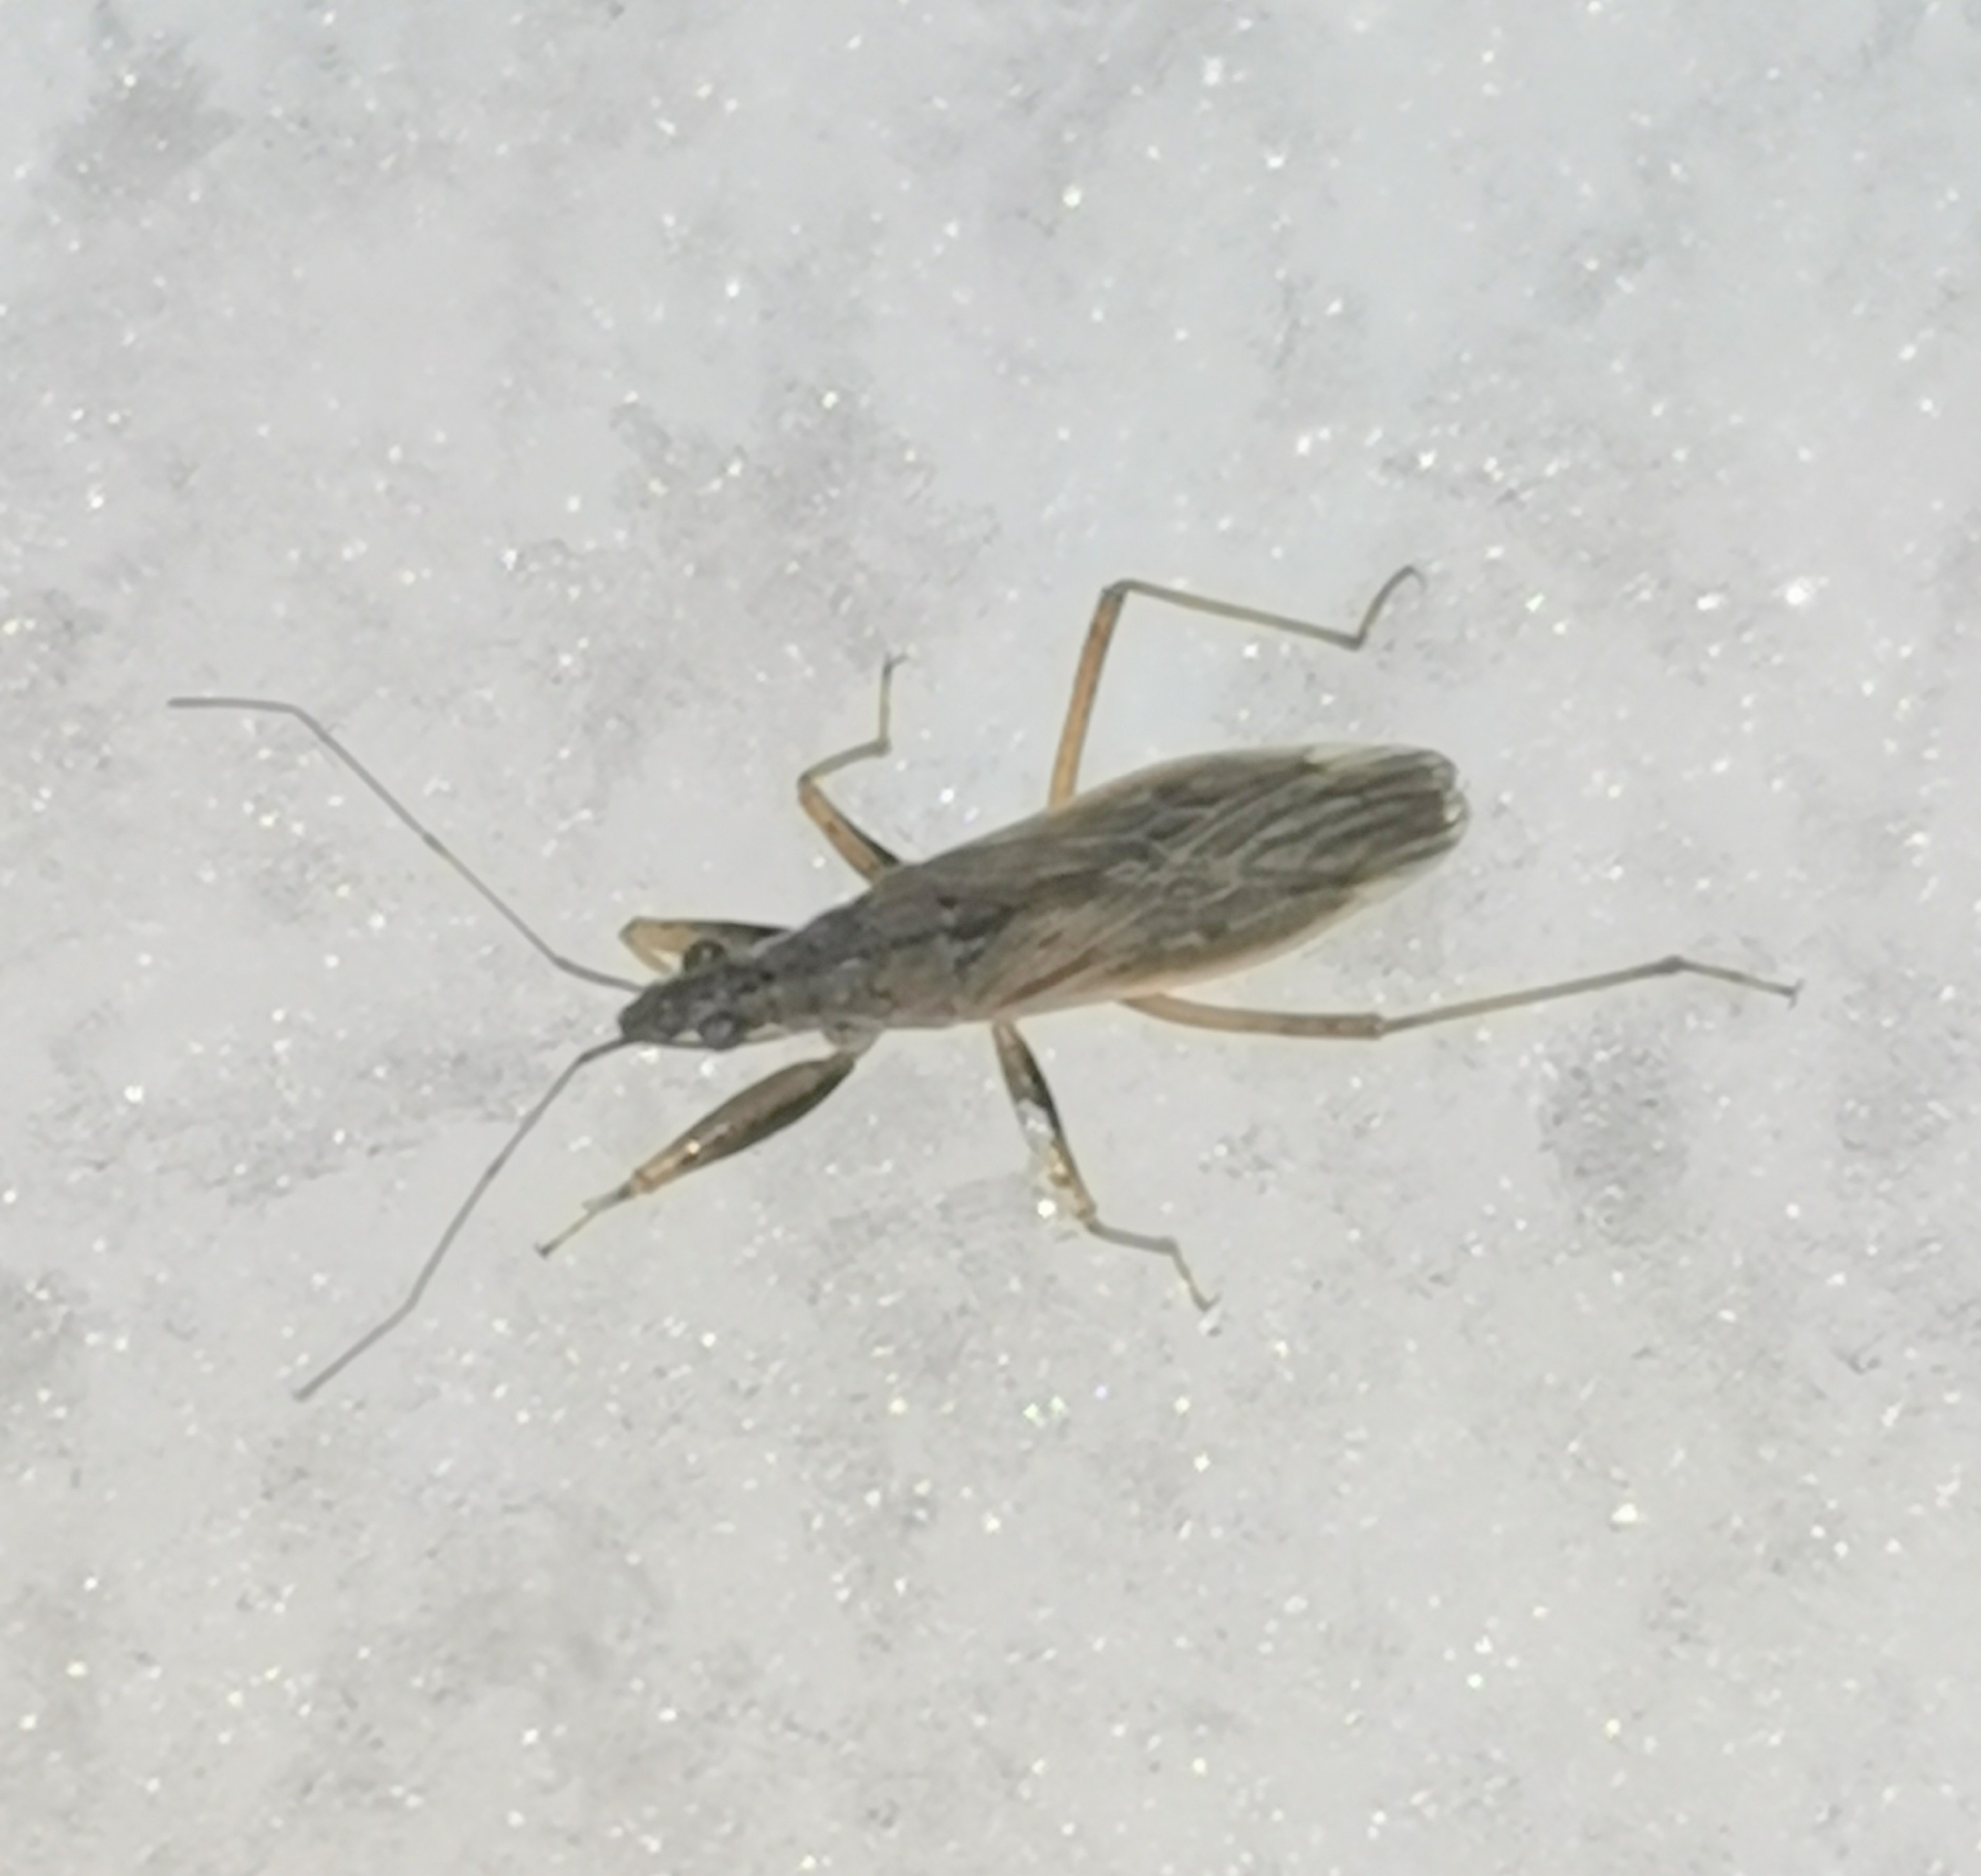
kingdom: Animalia
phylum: Arthropoda
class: Insecta
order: Hemiptera
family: Nabidae
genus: Nabis
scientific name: Nabis brevis
